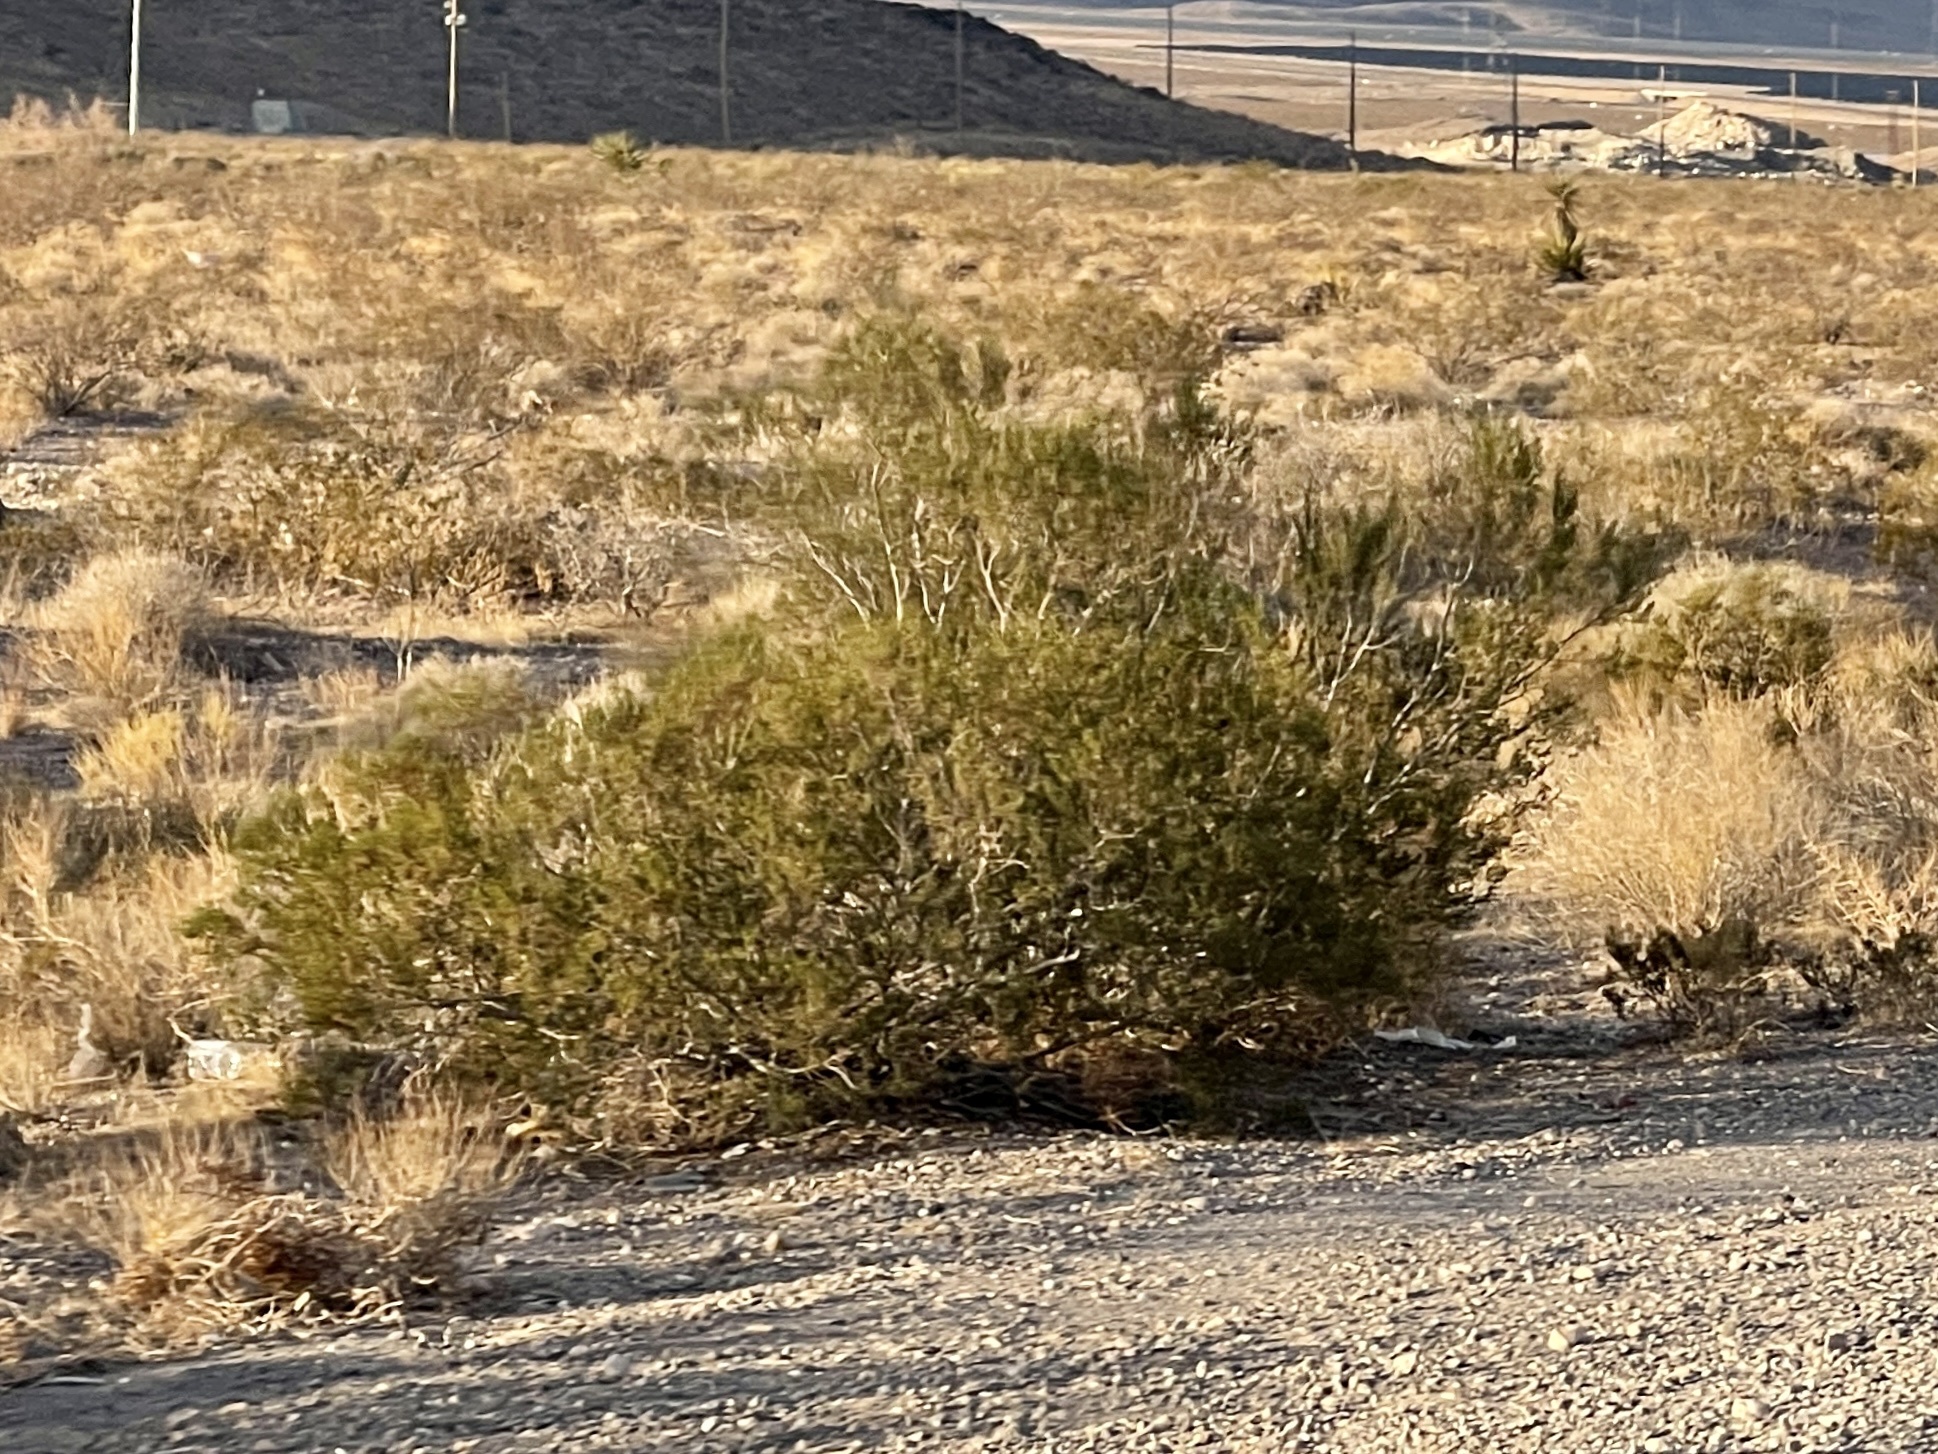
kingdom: Plantae
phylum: Tracheophyta
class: Magnoliopsida
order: Zygophyllales
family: Zygophyllaceae
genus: Larrea
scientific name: Larrea tridentata
